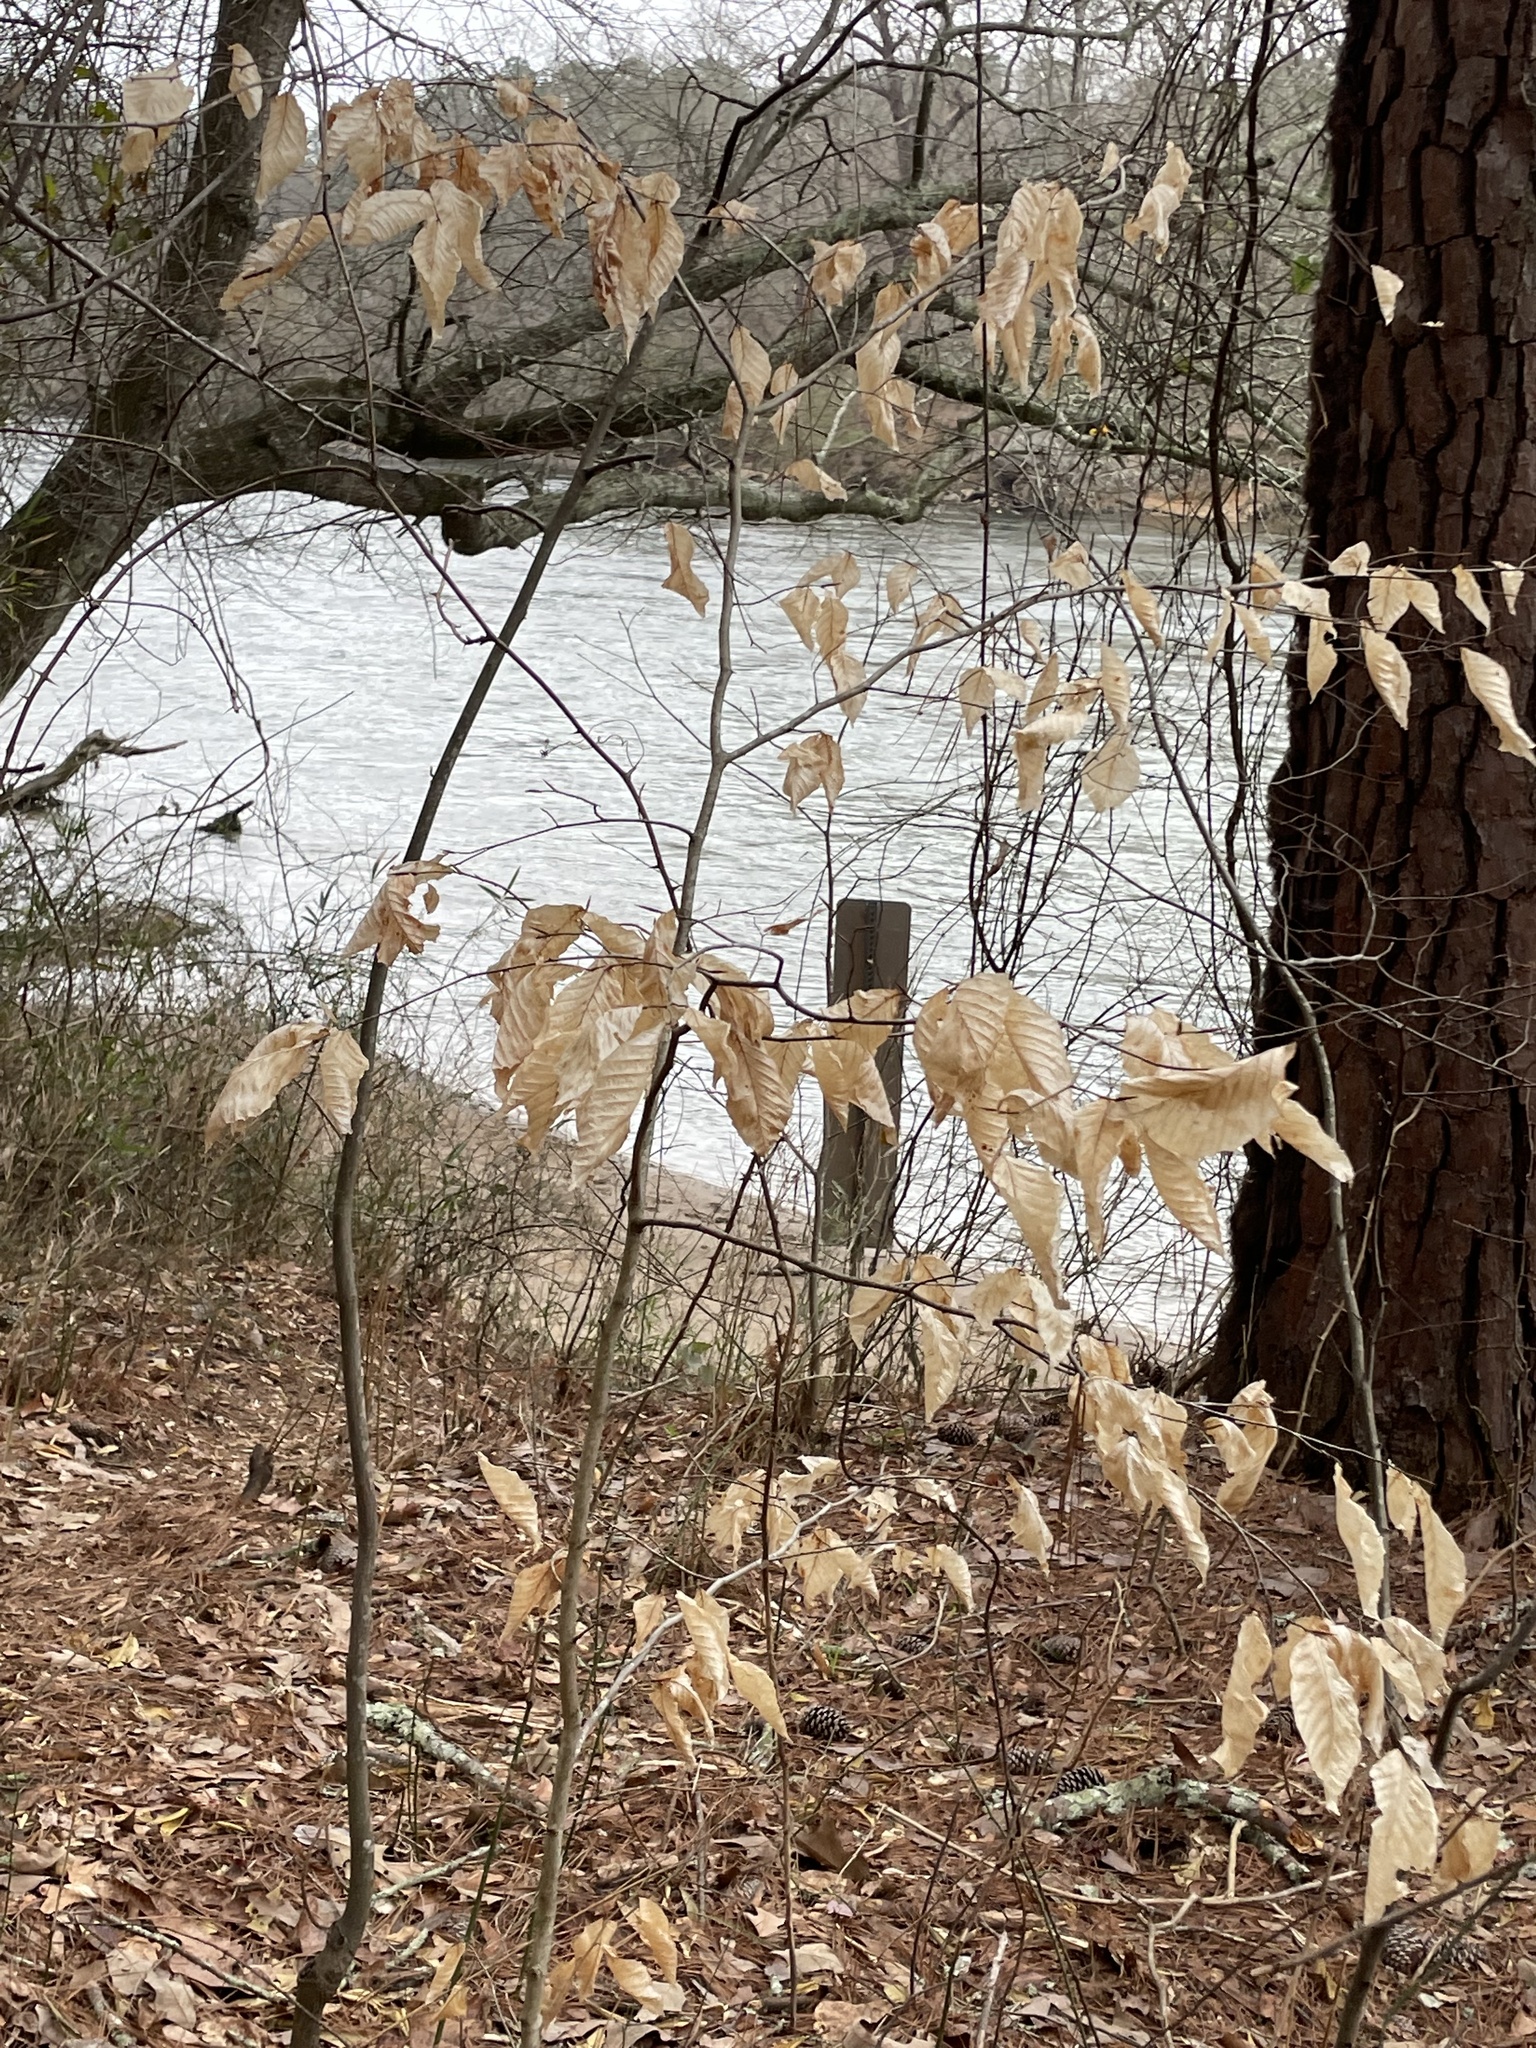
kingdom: Plantae
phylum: Tracheophyta
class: Magnoliopsida
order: Fagales
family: Fagaceae
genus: Fagus
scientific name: Fagus grandifolia
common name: American beech
